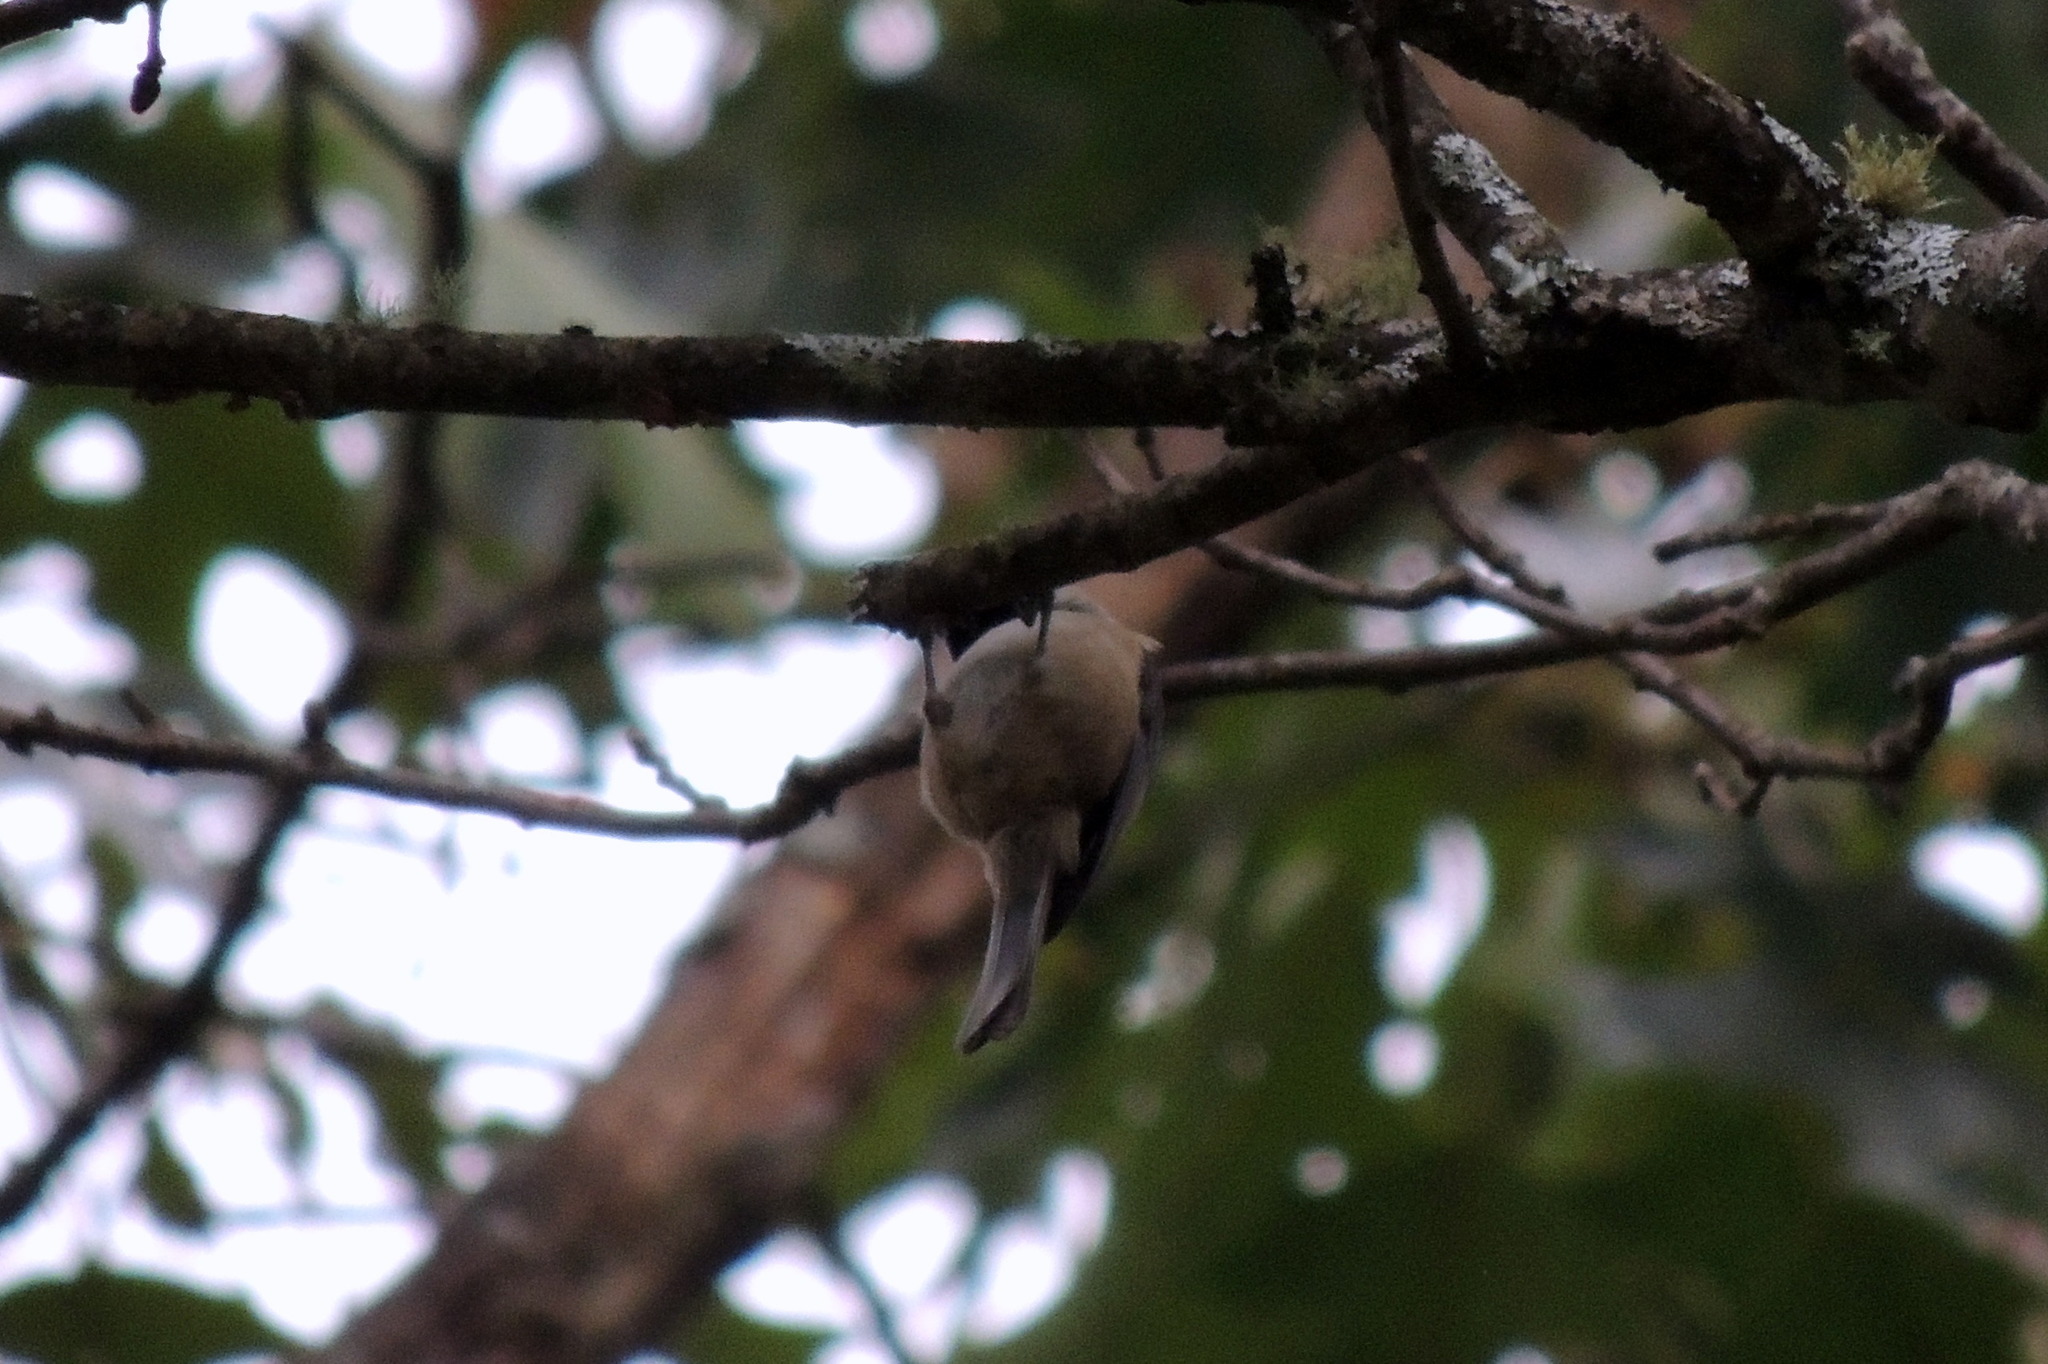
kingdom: Animalia
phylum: Chordata
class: Aves
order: Passeriformes
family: Paridae
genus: Poecile
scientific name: Poecile carolinensis
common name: Carolina chickadee
